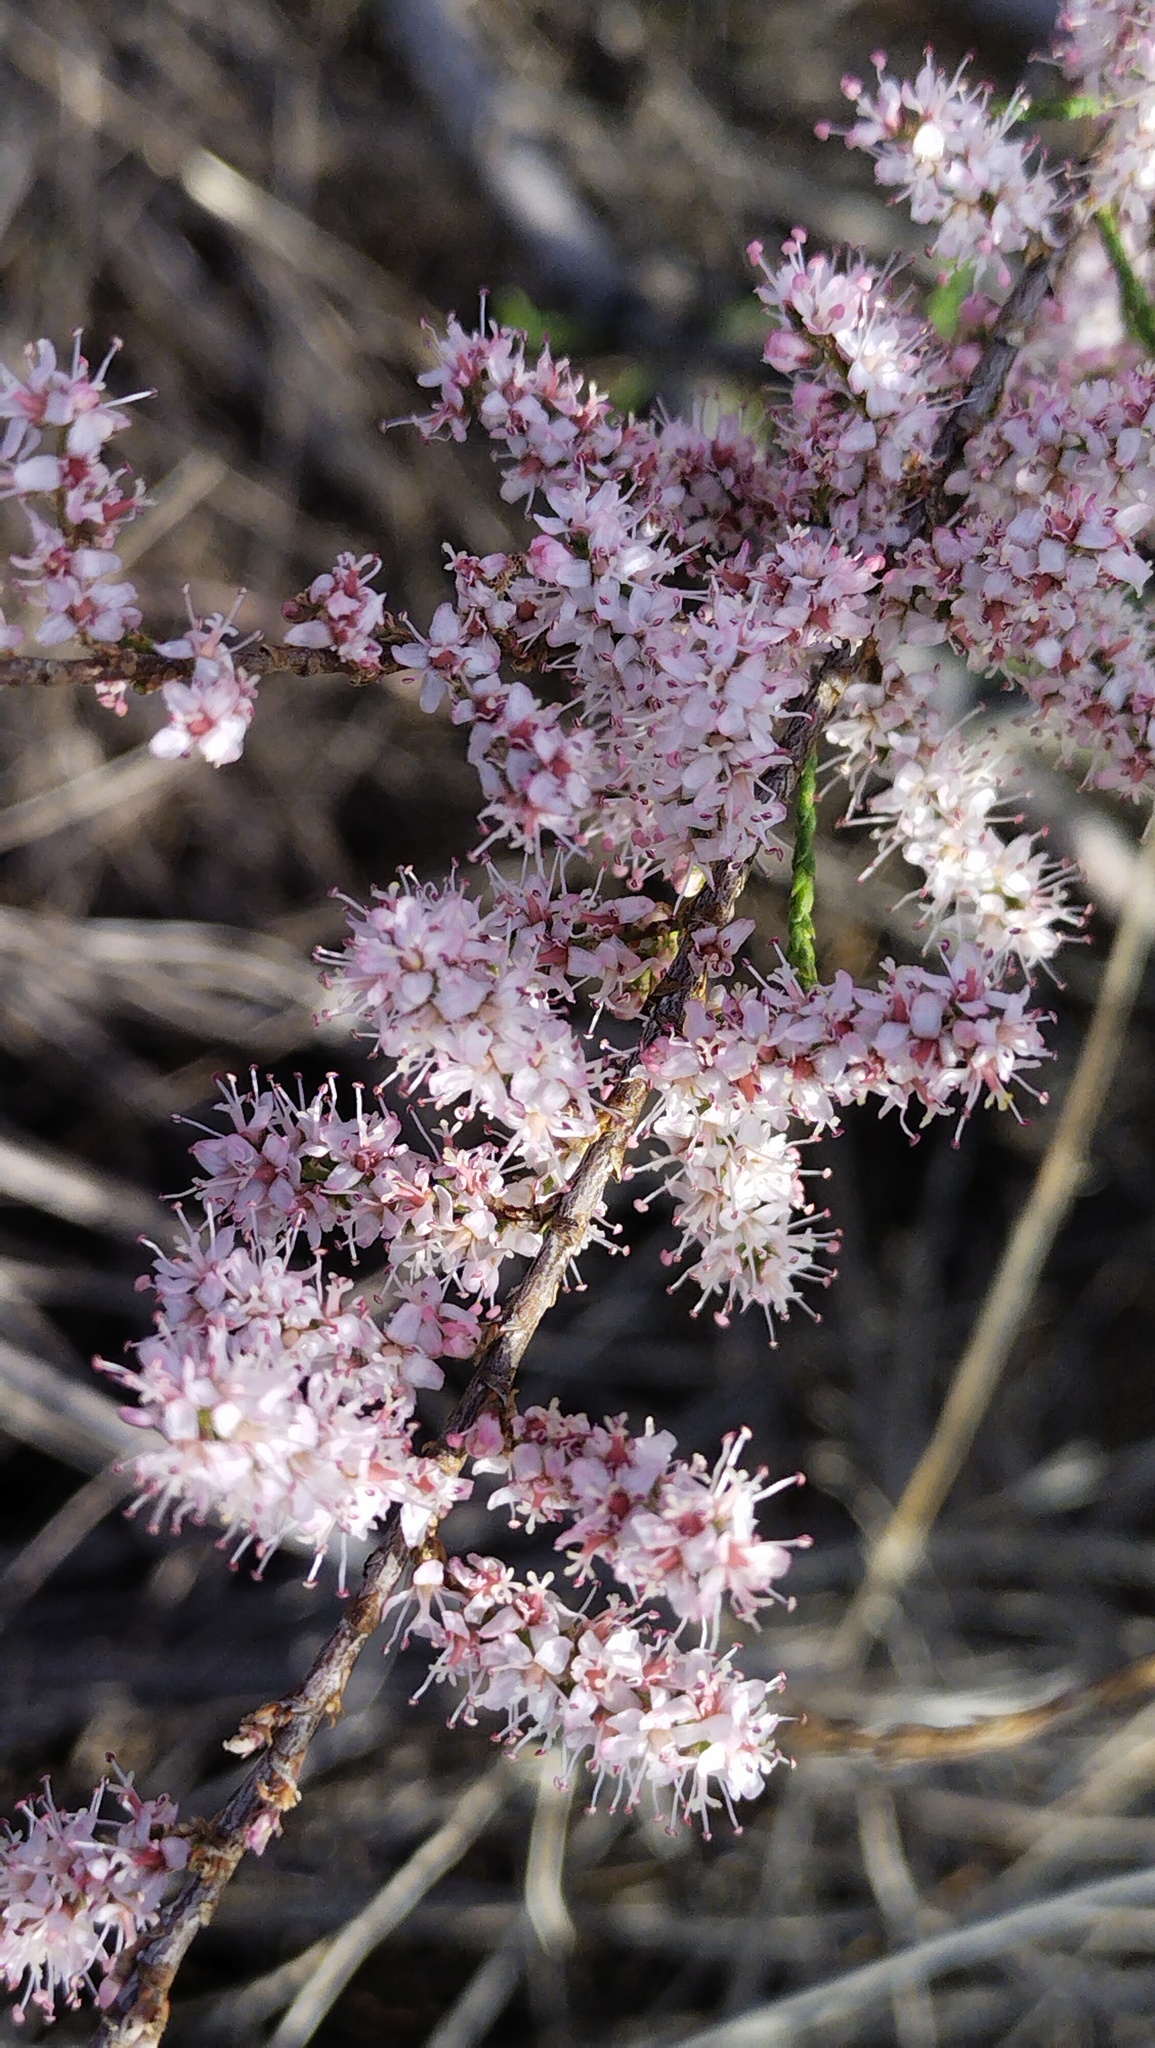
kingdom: Plantae
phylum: Tracheophyta
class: Magnoliopsida
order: Caryophyllales
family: Tamaricaceae
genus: Tamarix
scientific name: Tamarix ramosissima
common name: Pink tamarisk
